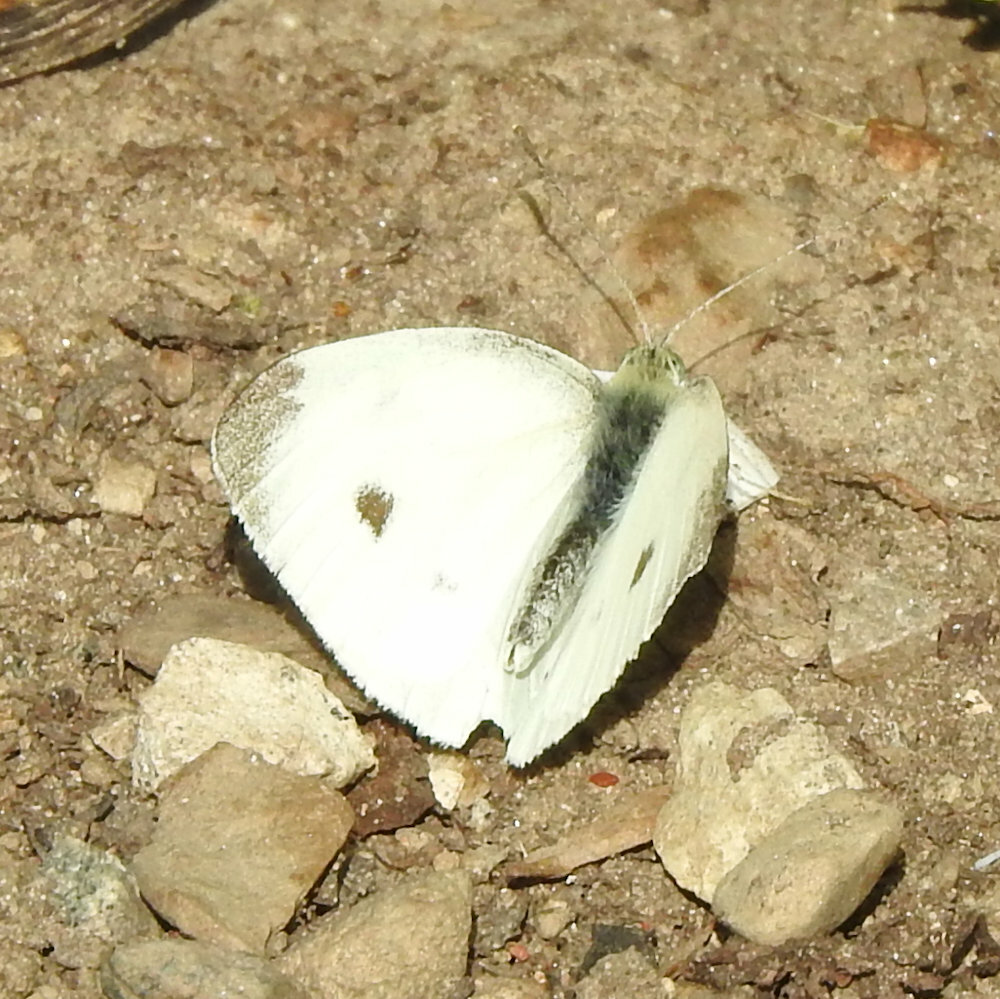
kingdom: Animalia
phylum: Arthropoda
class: Insecta
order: Lepidoptera
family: Pieridae
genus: Pieris
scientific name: Pieris rapae
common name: Small white
